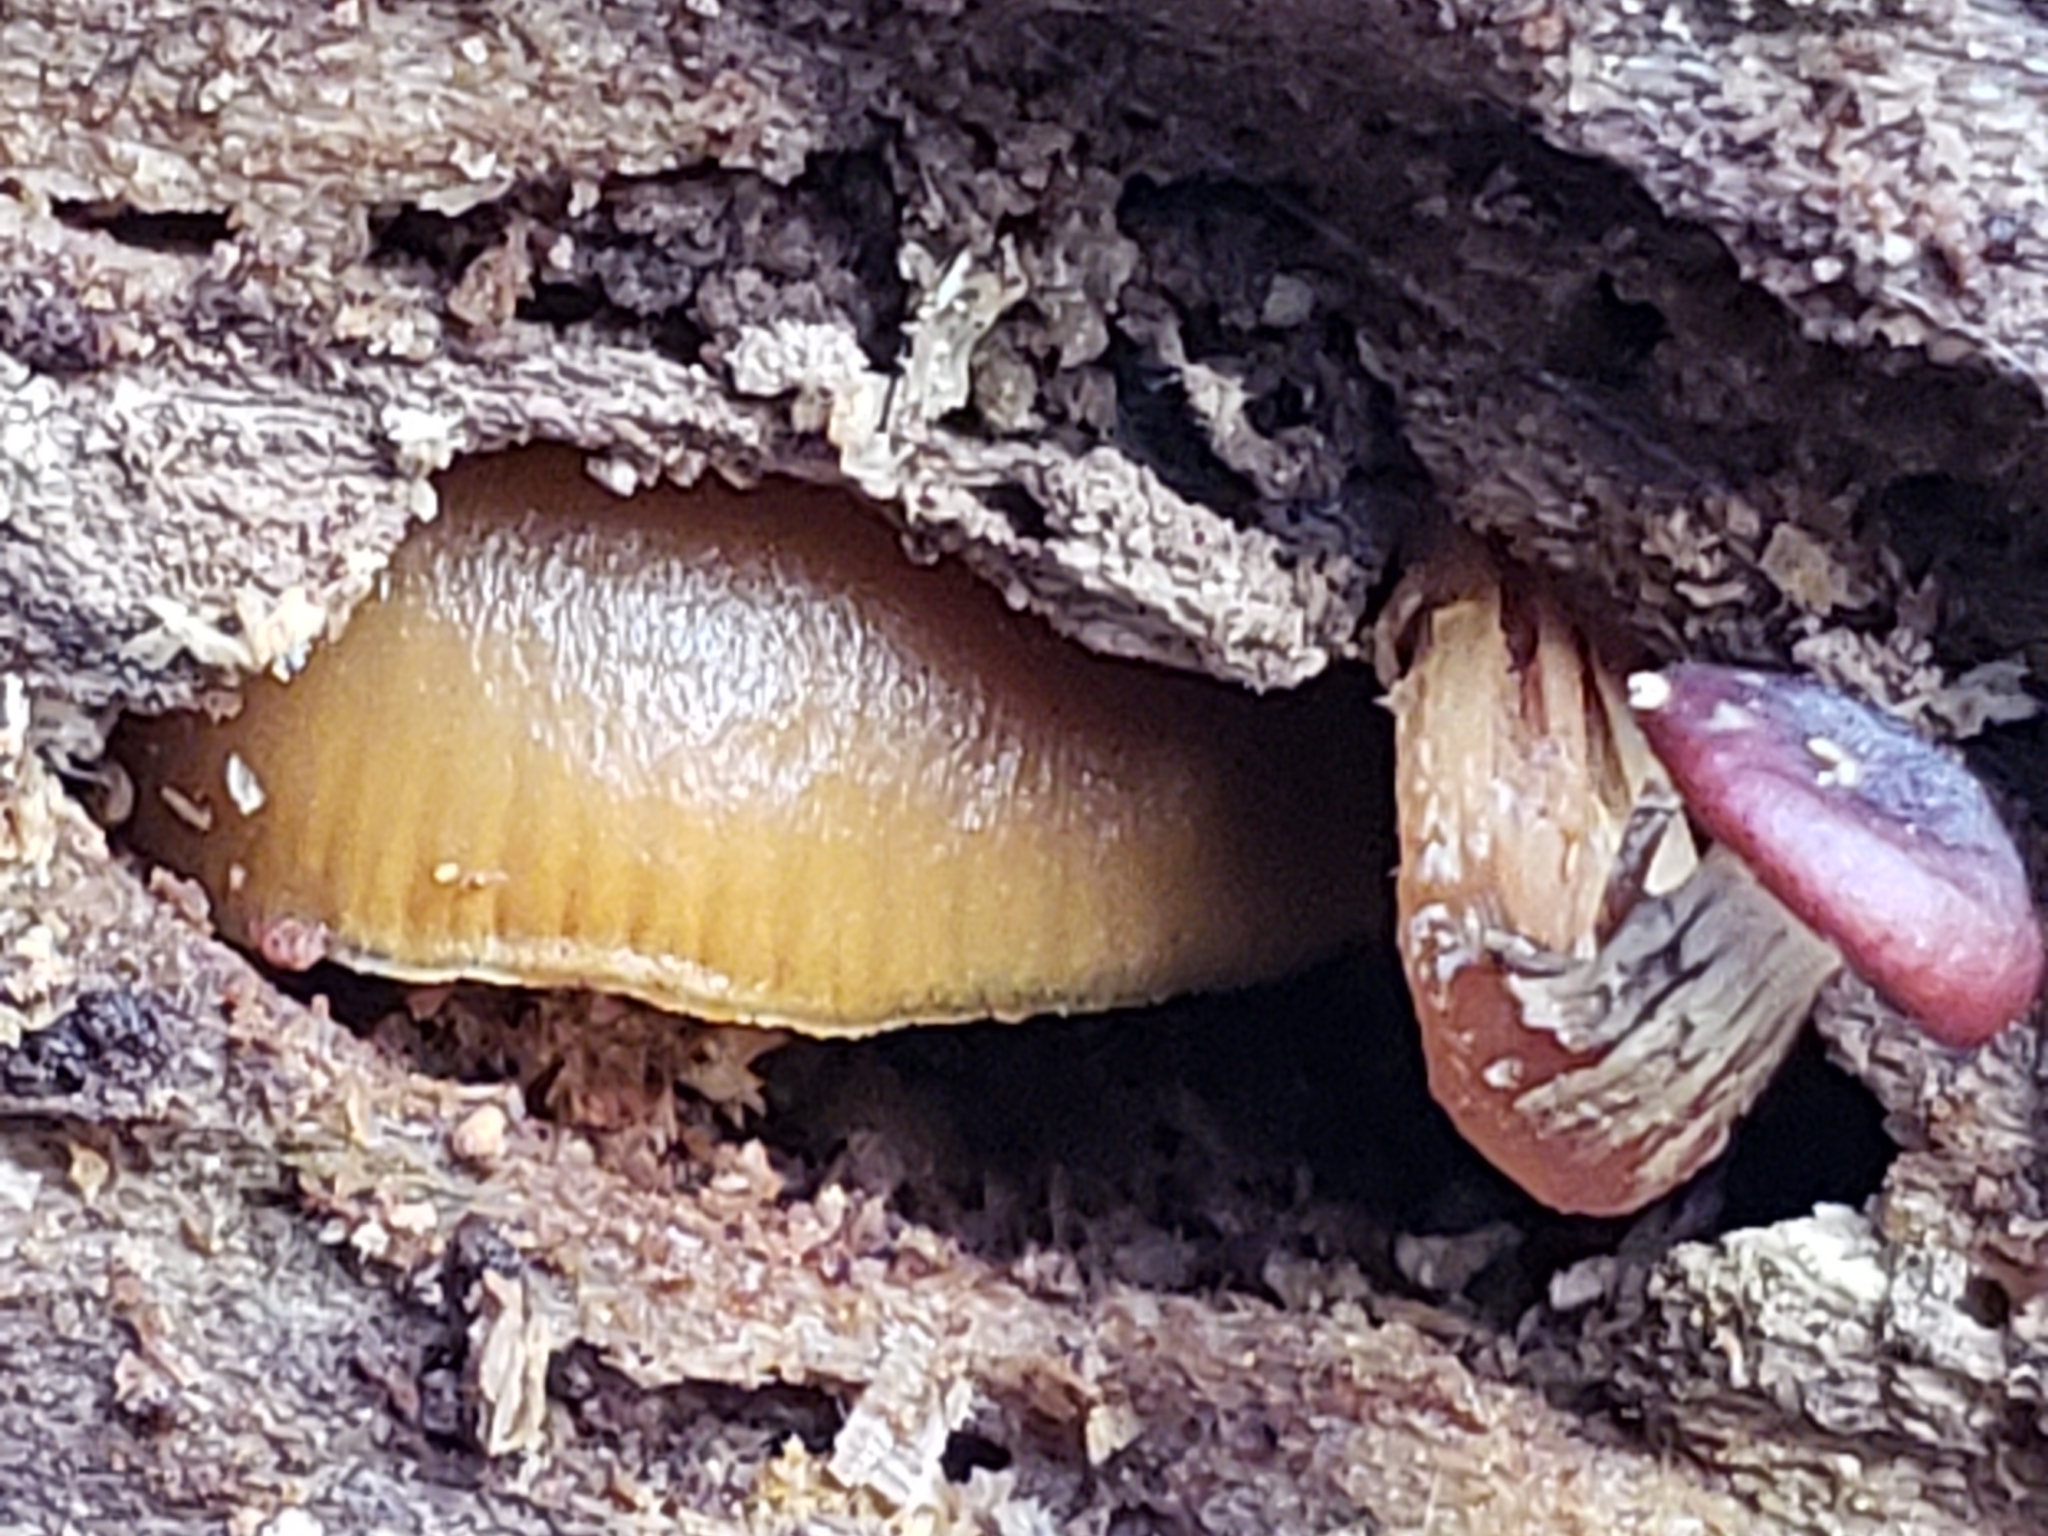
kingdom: Fungi
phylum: Basidiomycota
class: Agaricomycetes
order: Agaricales
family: Hymenogastraceae
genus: Galerina
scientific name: Galerina marginata
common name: Funeral bell
